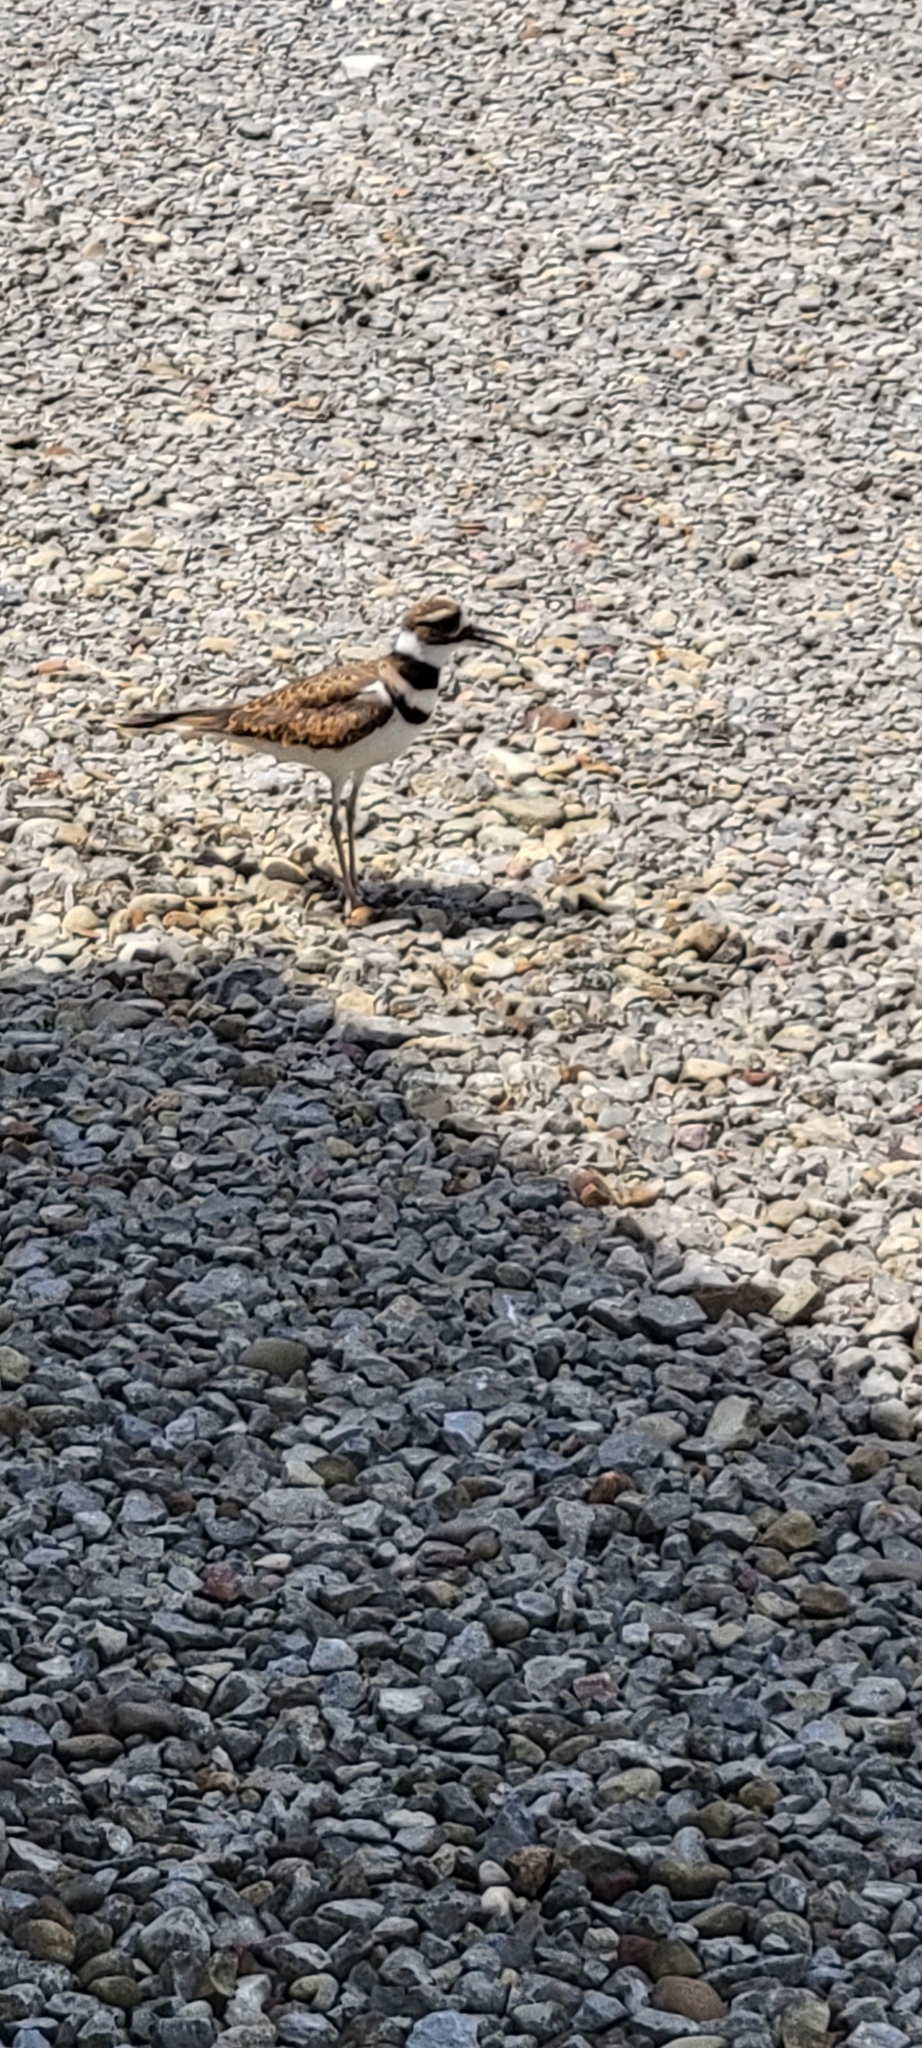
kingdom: Animalia
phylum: Chordata
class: Aves
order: Charadriiformes
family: Charadriidae
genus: Charadrius
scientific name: Charadrius vociferus
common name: Killdeer
